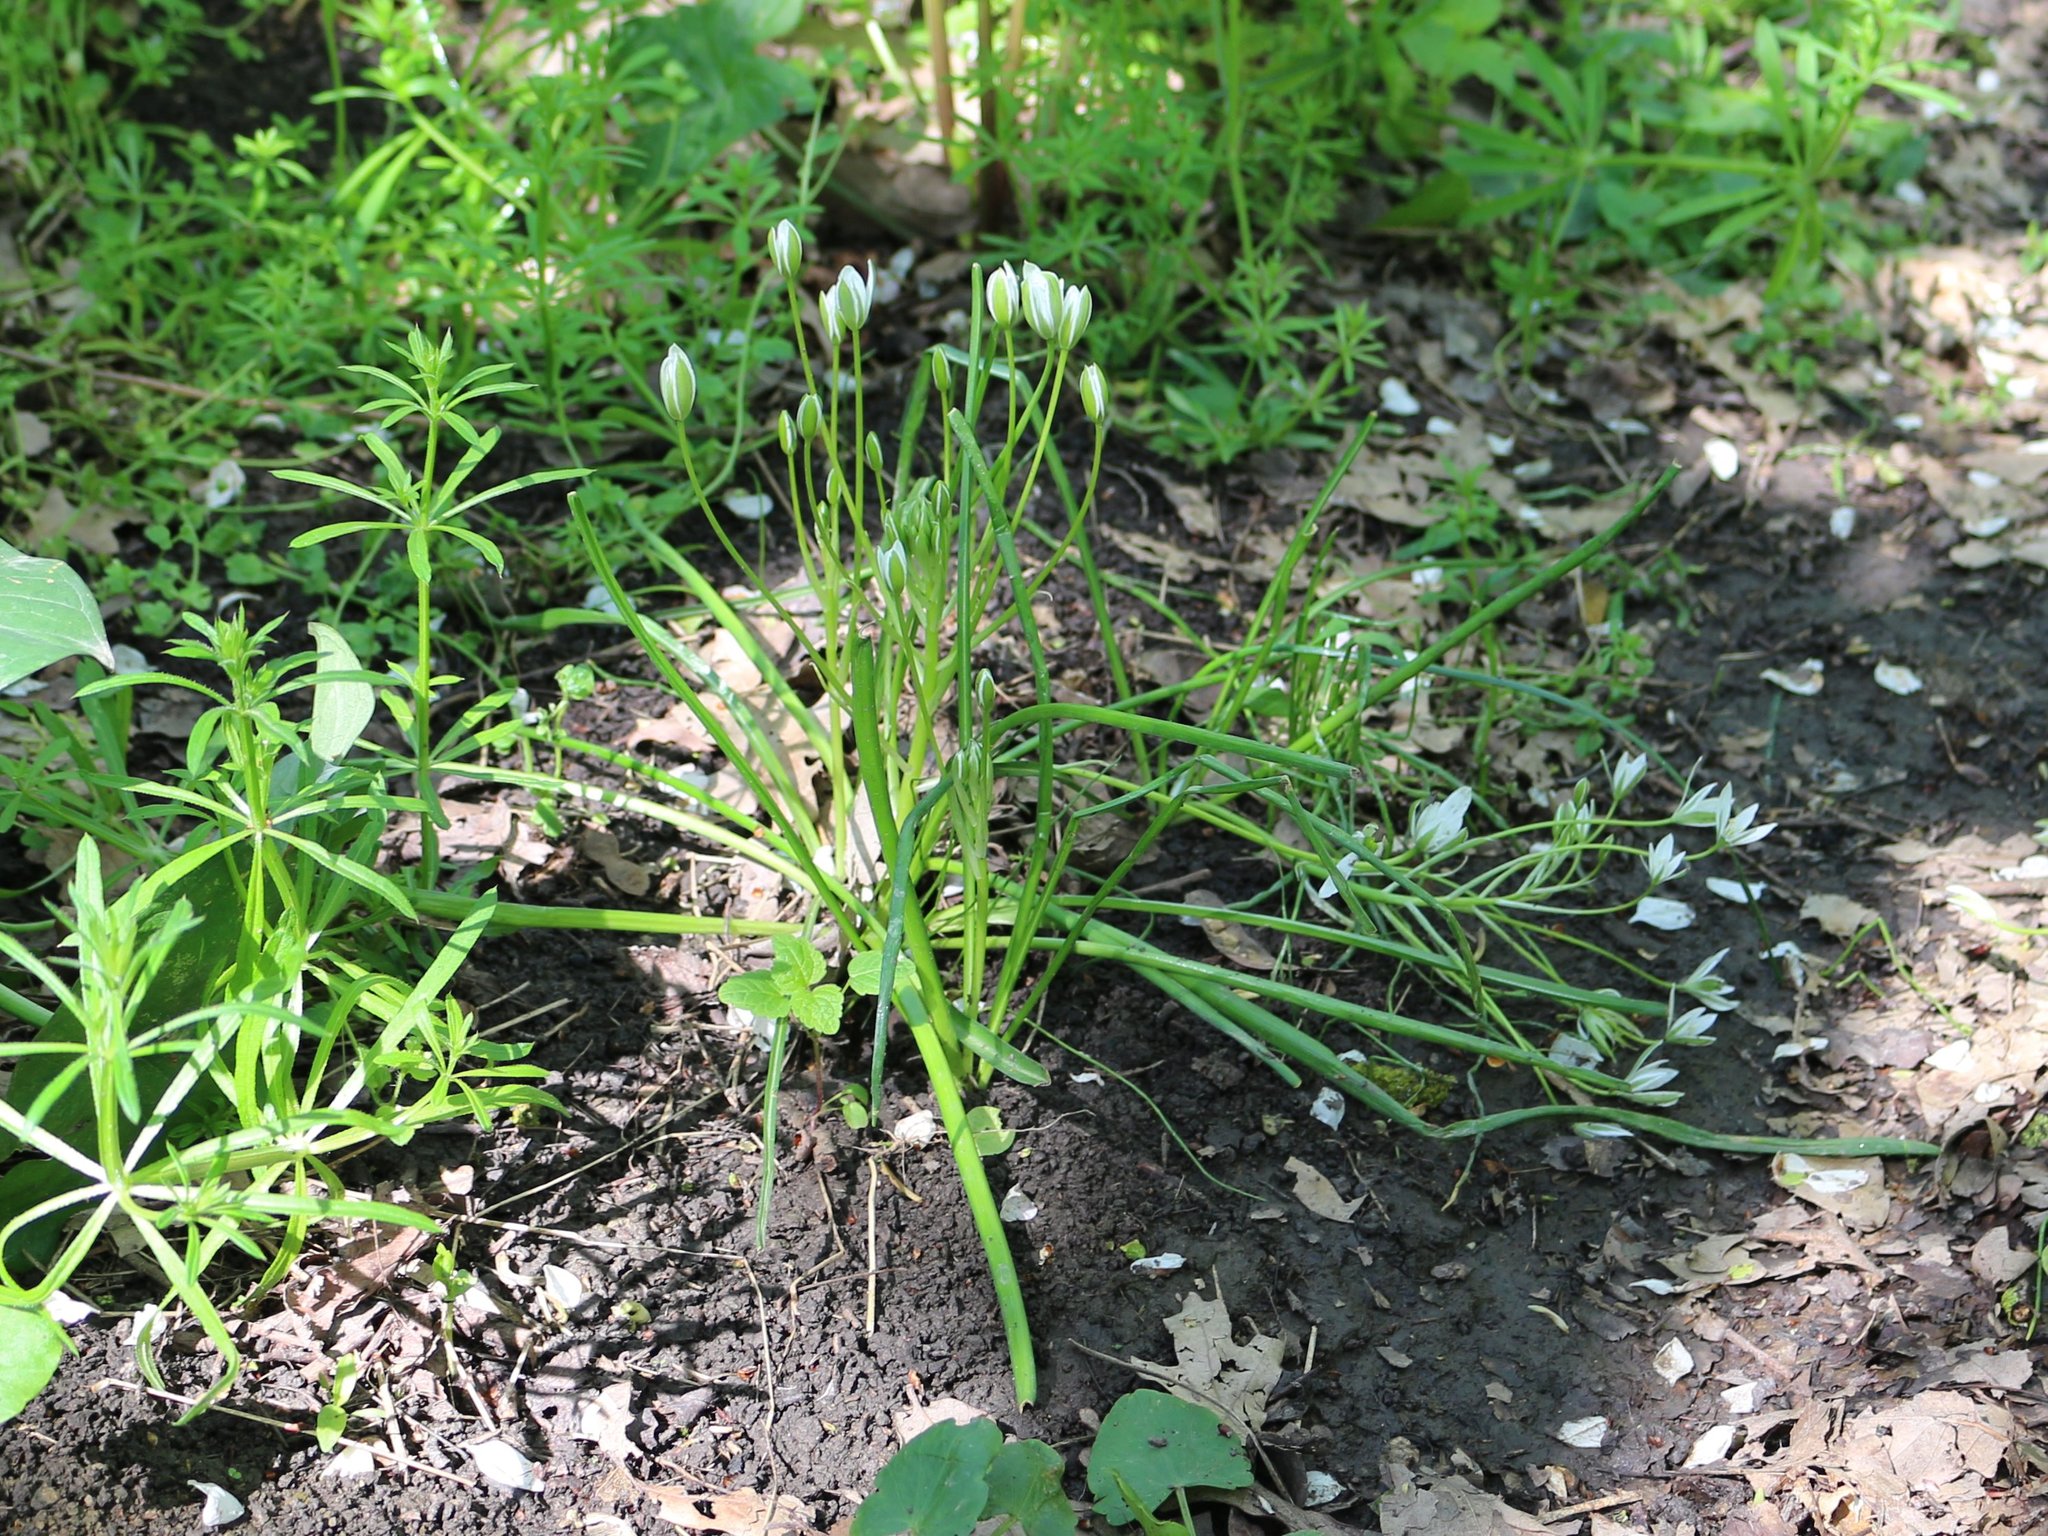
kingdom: Plantae
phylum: Tracheophyta
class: Liliopsida
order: Asparagales
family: Asparagaceae
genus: Ornithogalum
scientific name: Ornithogalum woronowii
